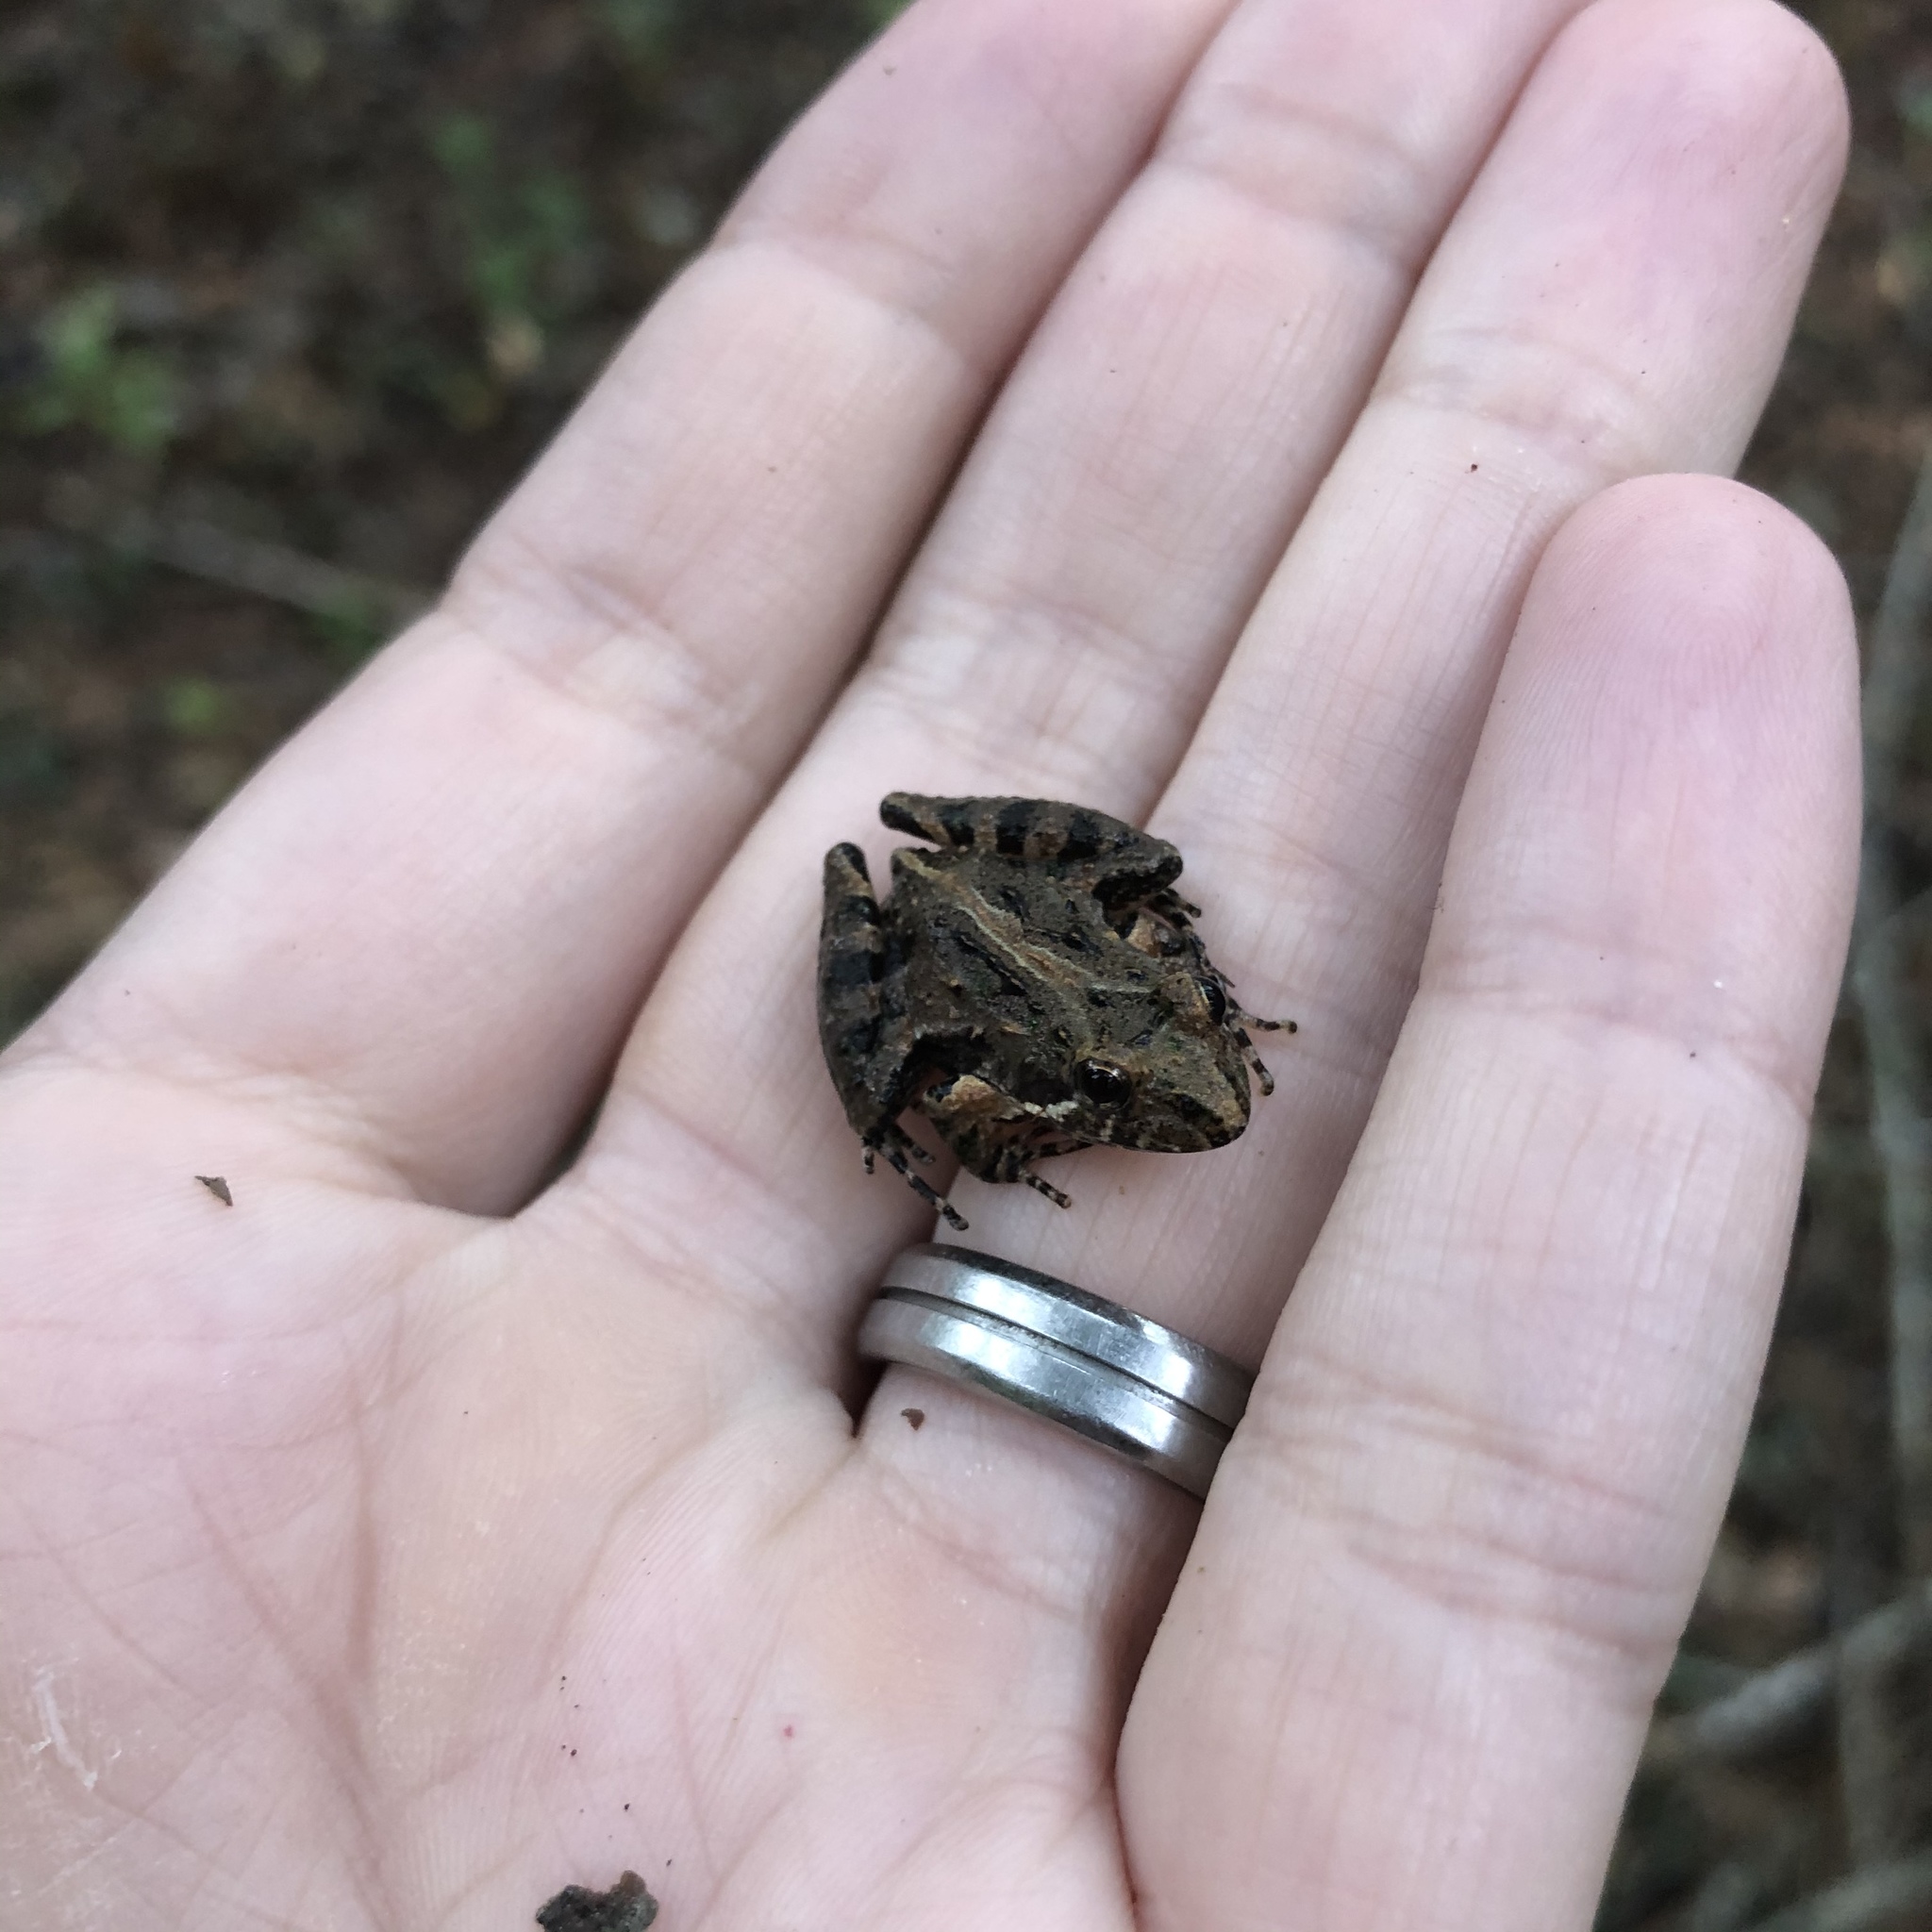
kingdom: Animalia
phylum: Chordata
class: Amphibia
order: Anura
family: Hylidae
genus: Acris
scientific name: Acris gryllus
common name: Southern cricket frog
